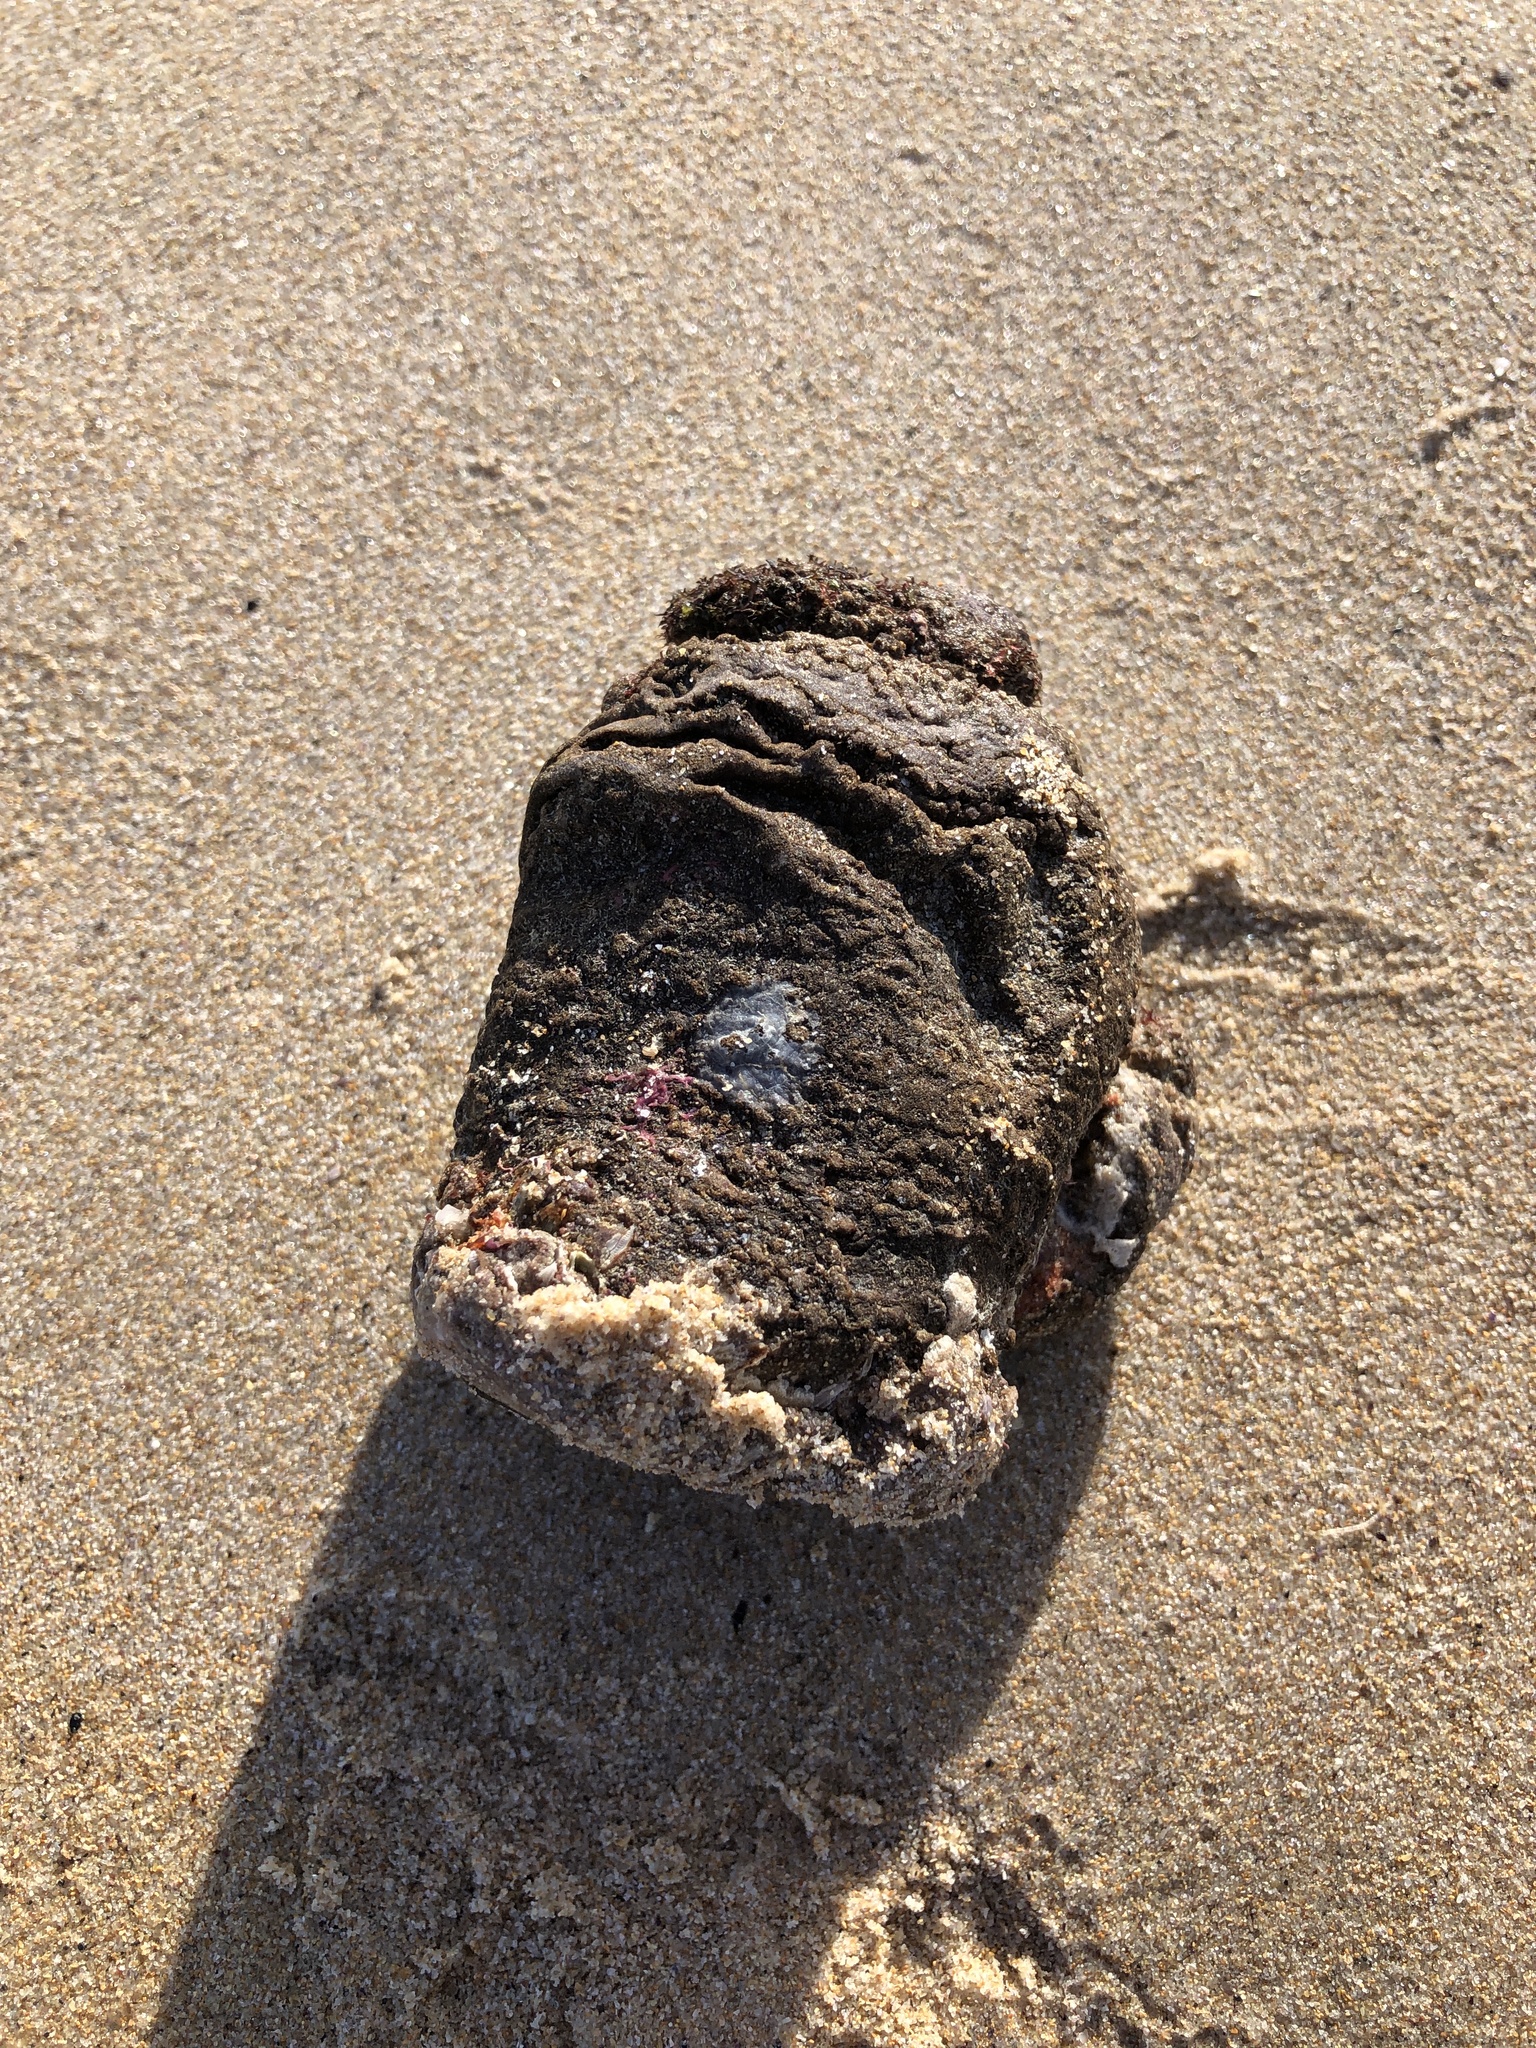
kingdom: Animalia
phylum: Chordata
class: Ascidiacea
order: Stolidobranchia
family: Pyuridae
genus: Pyura
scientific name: Pyura praeputialis
